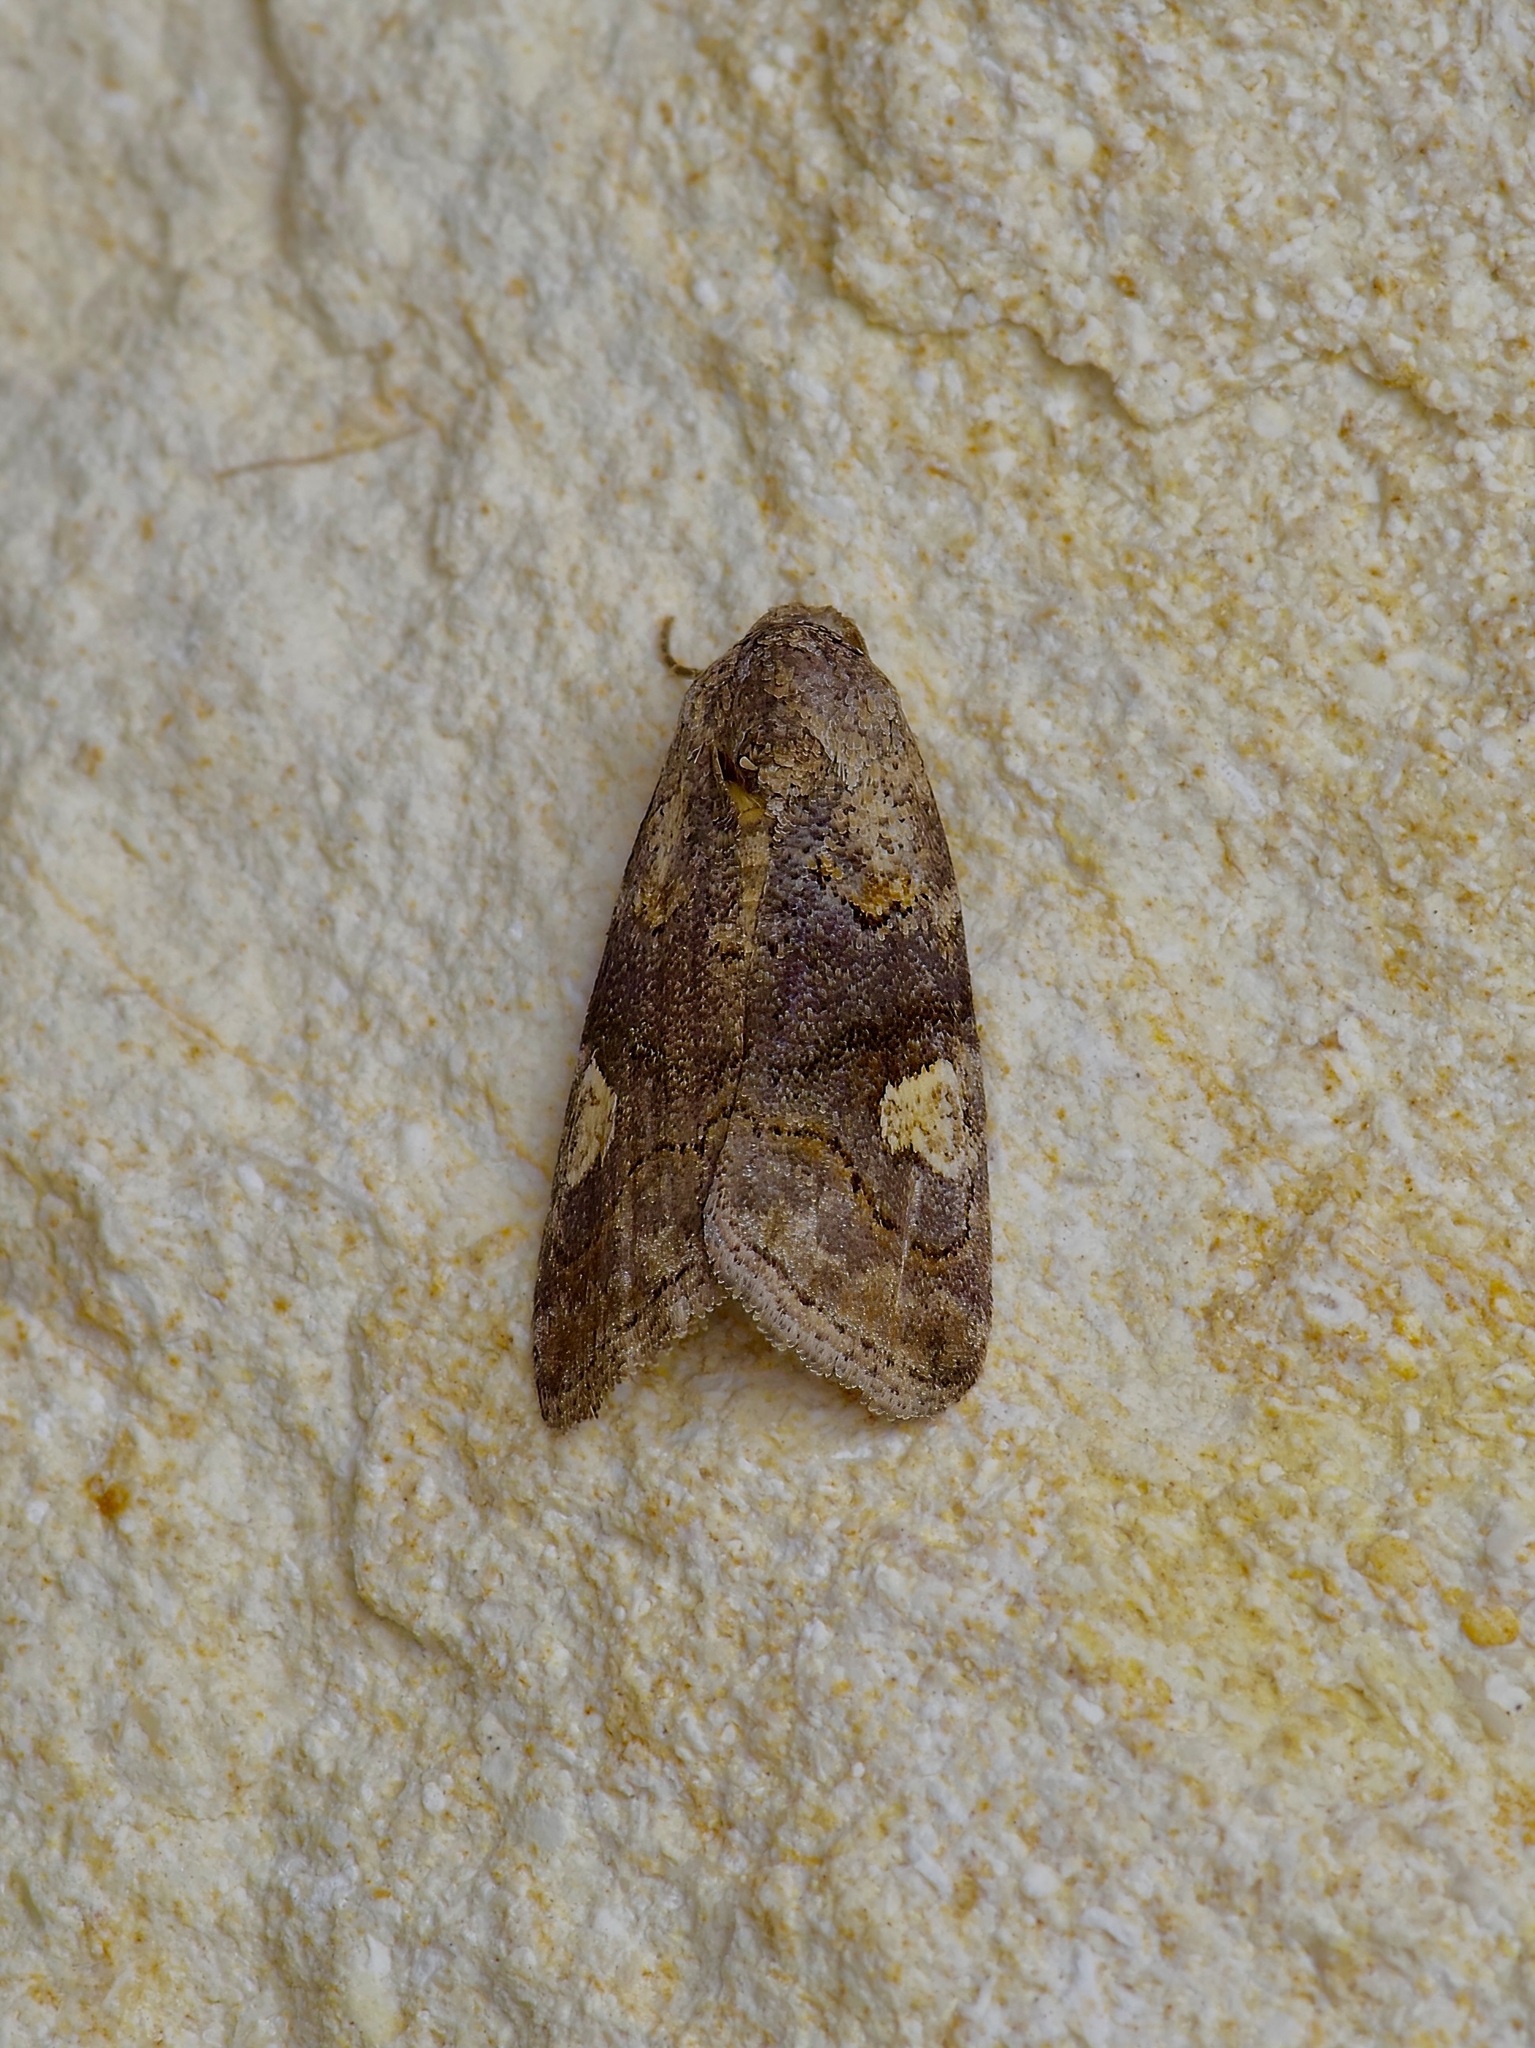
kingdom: Animalia
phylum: Arthropoda
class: Insecta
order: Lepidoptera
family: Noctuidae
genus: Metaponpneumata
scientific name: Metaponpneumata rogenhoferi
